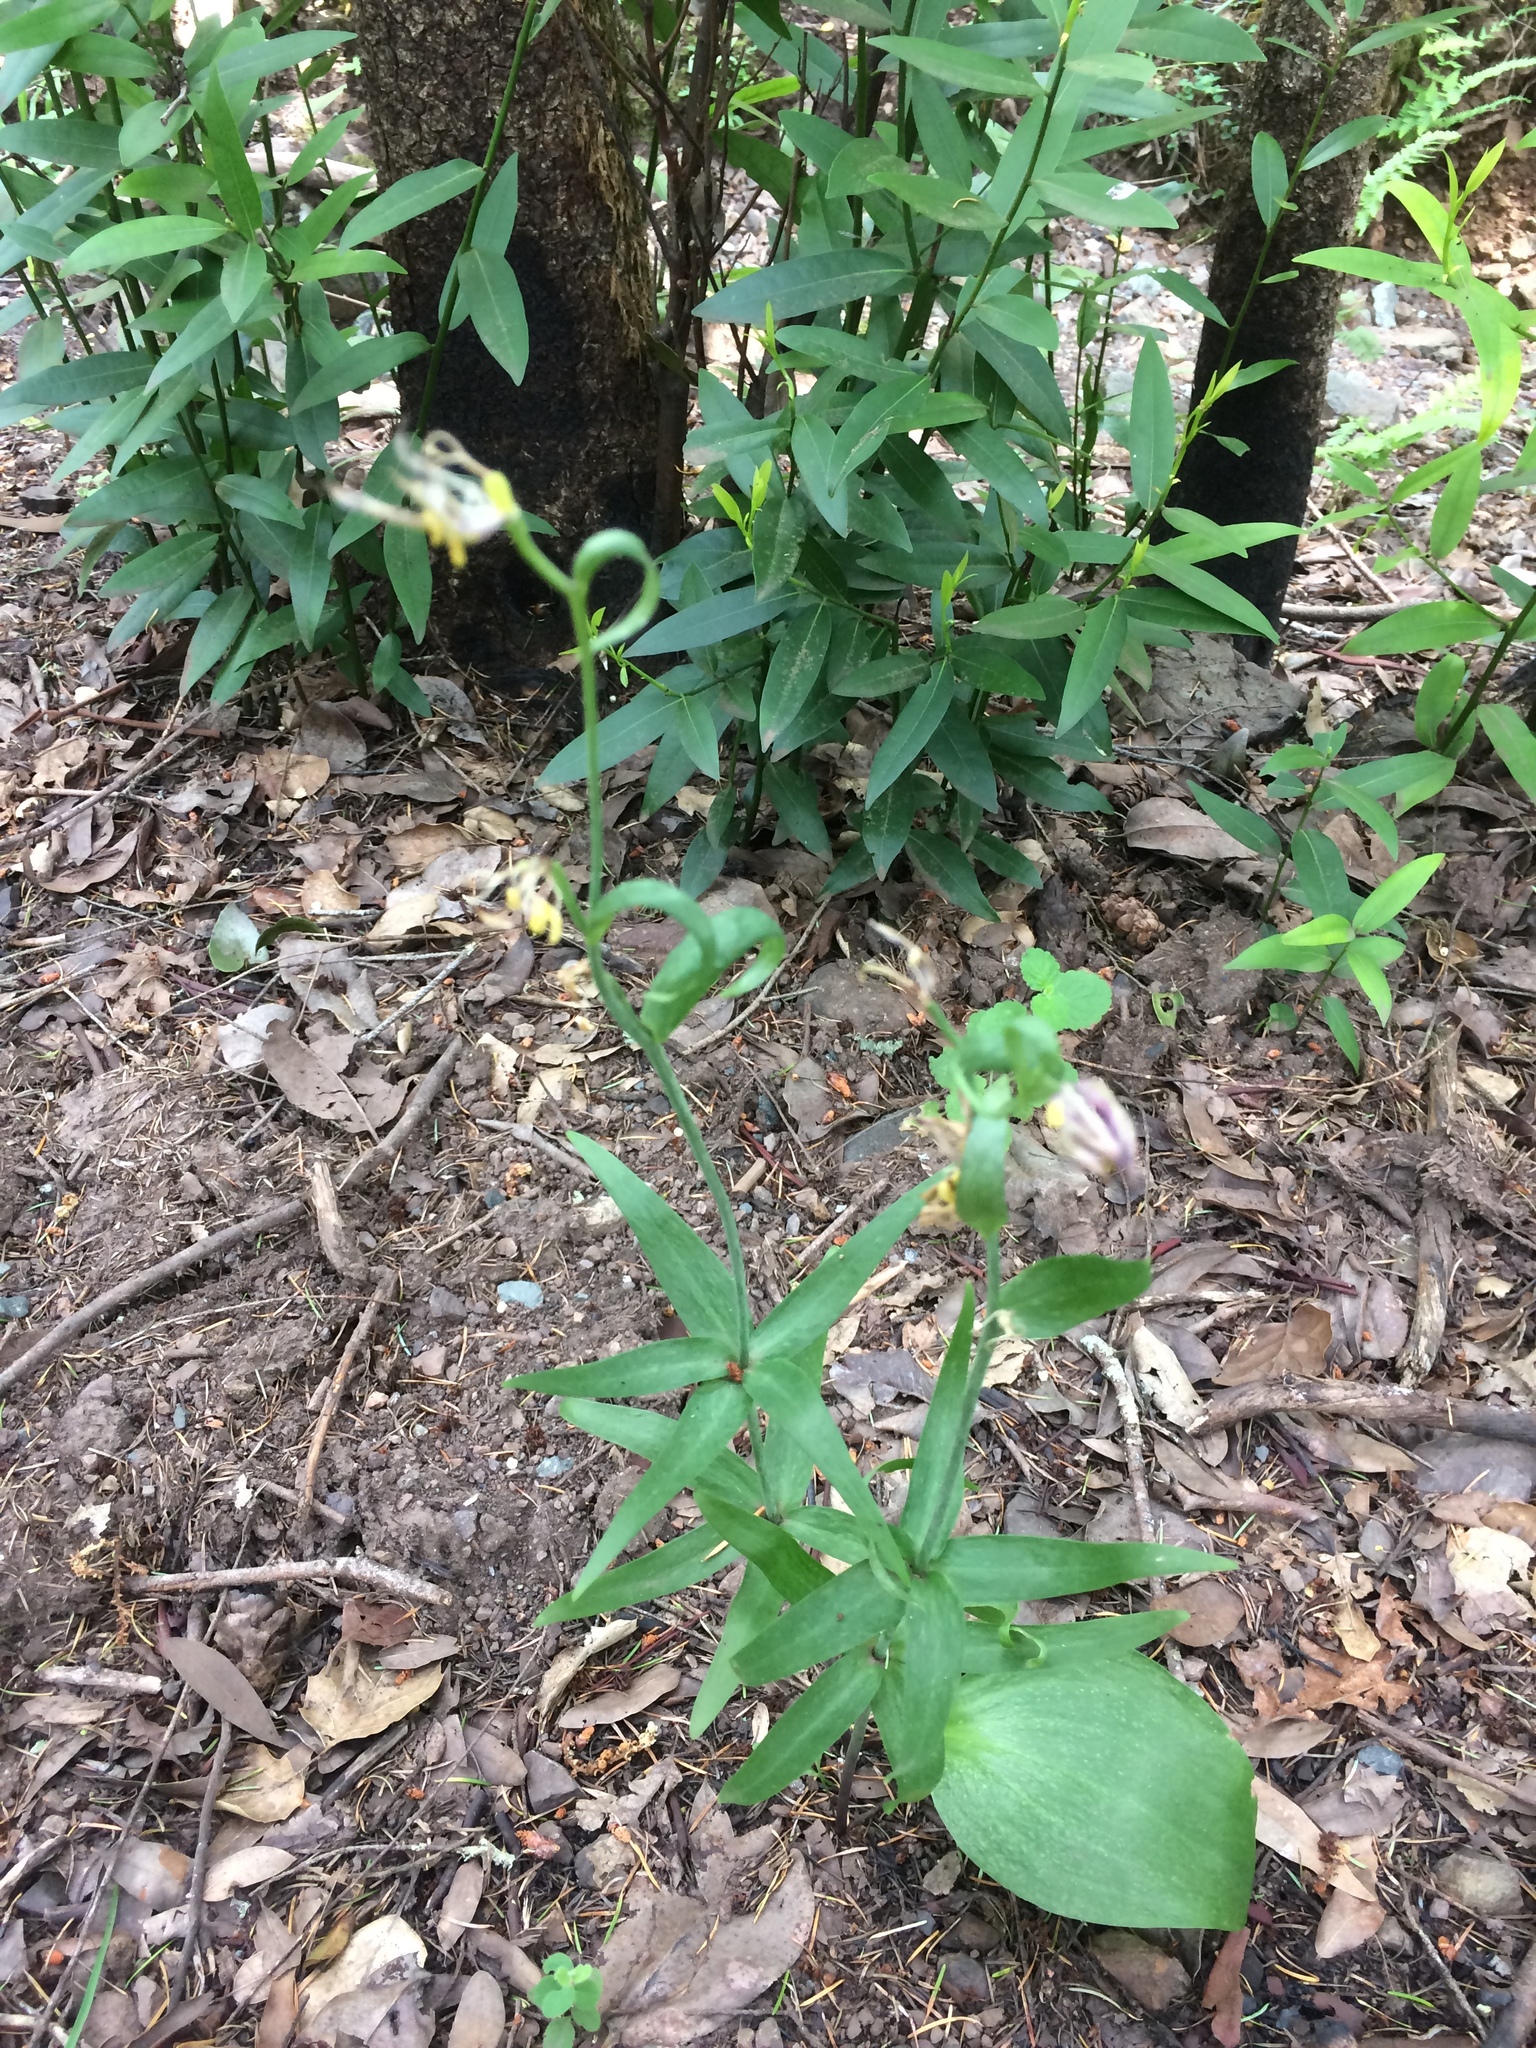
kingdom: Plantae
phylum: Tracheophyta
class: Liliopsida
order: Liliales
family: Liliaceae
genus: Fritillaria
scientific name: Fritillaria affinis
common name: Ojai fritillary
